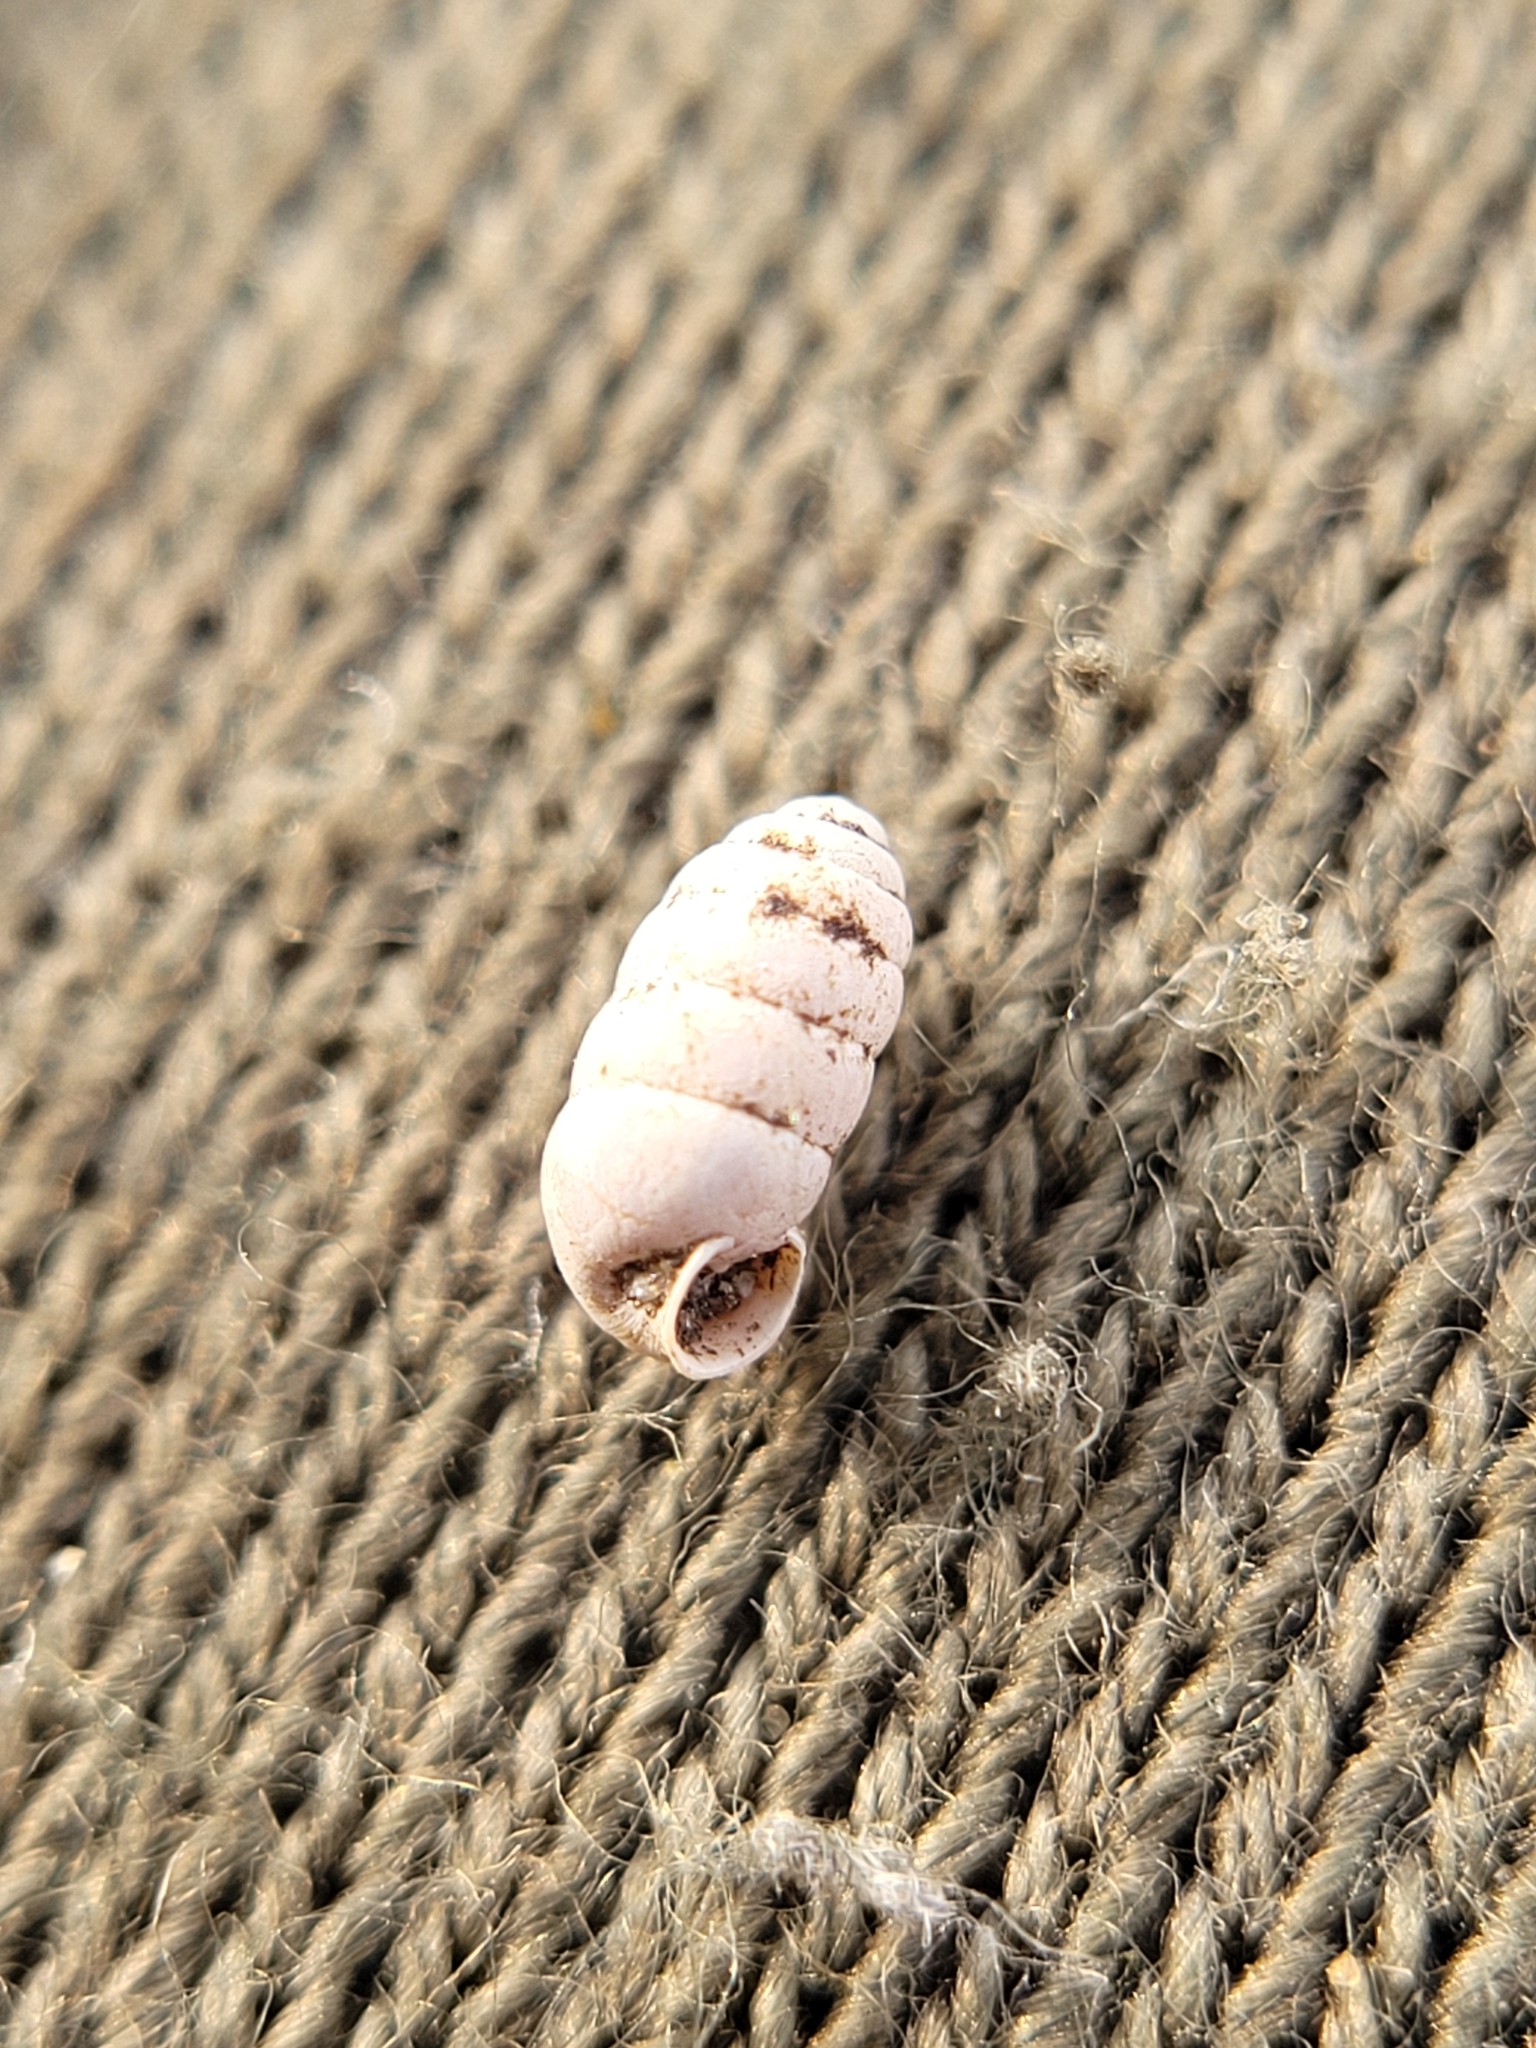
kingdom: Animalia
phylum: Mollusca
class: Gastropoda
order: Stylommatophora
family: Pupillidae
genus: Pupilla
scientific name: Pupilla muscorum
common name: Moss chrysalis snail
